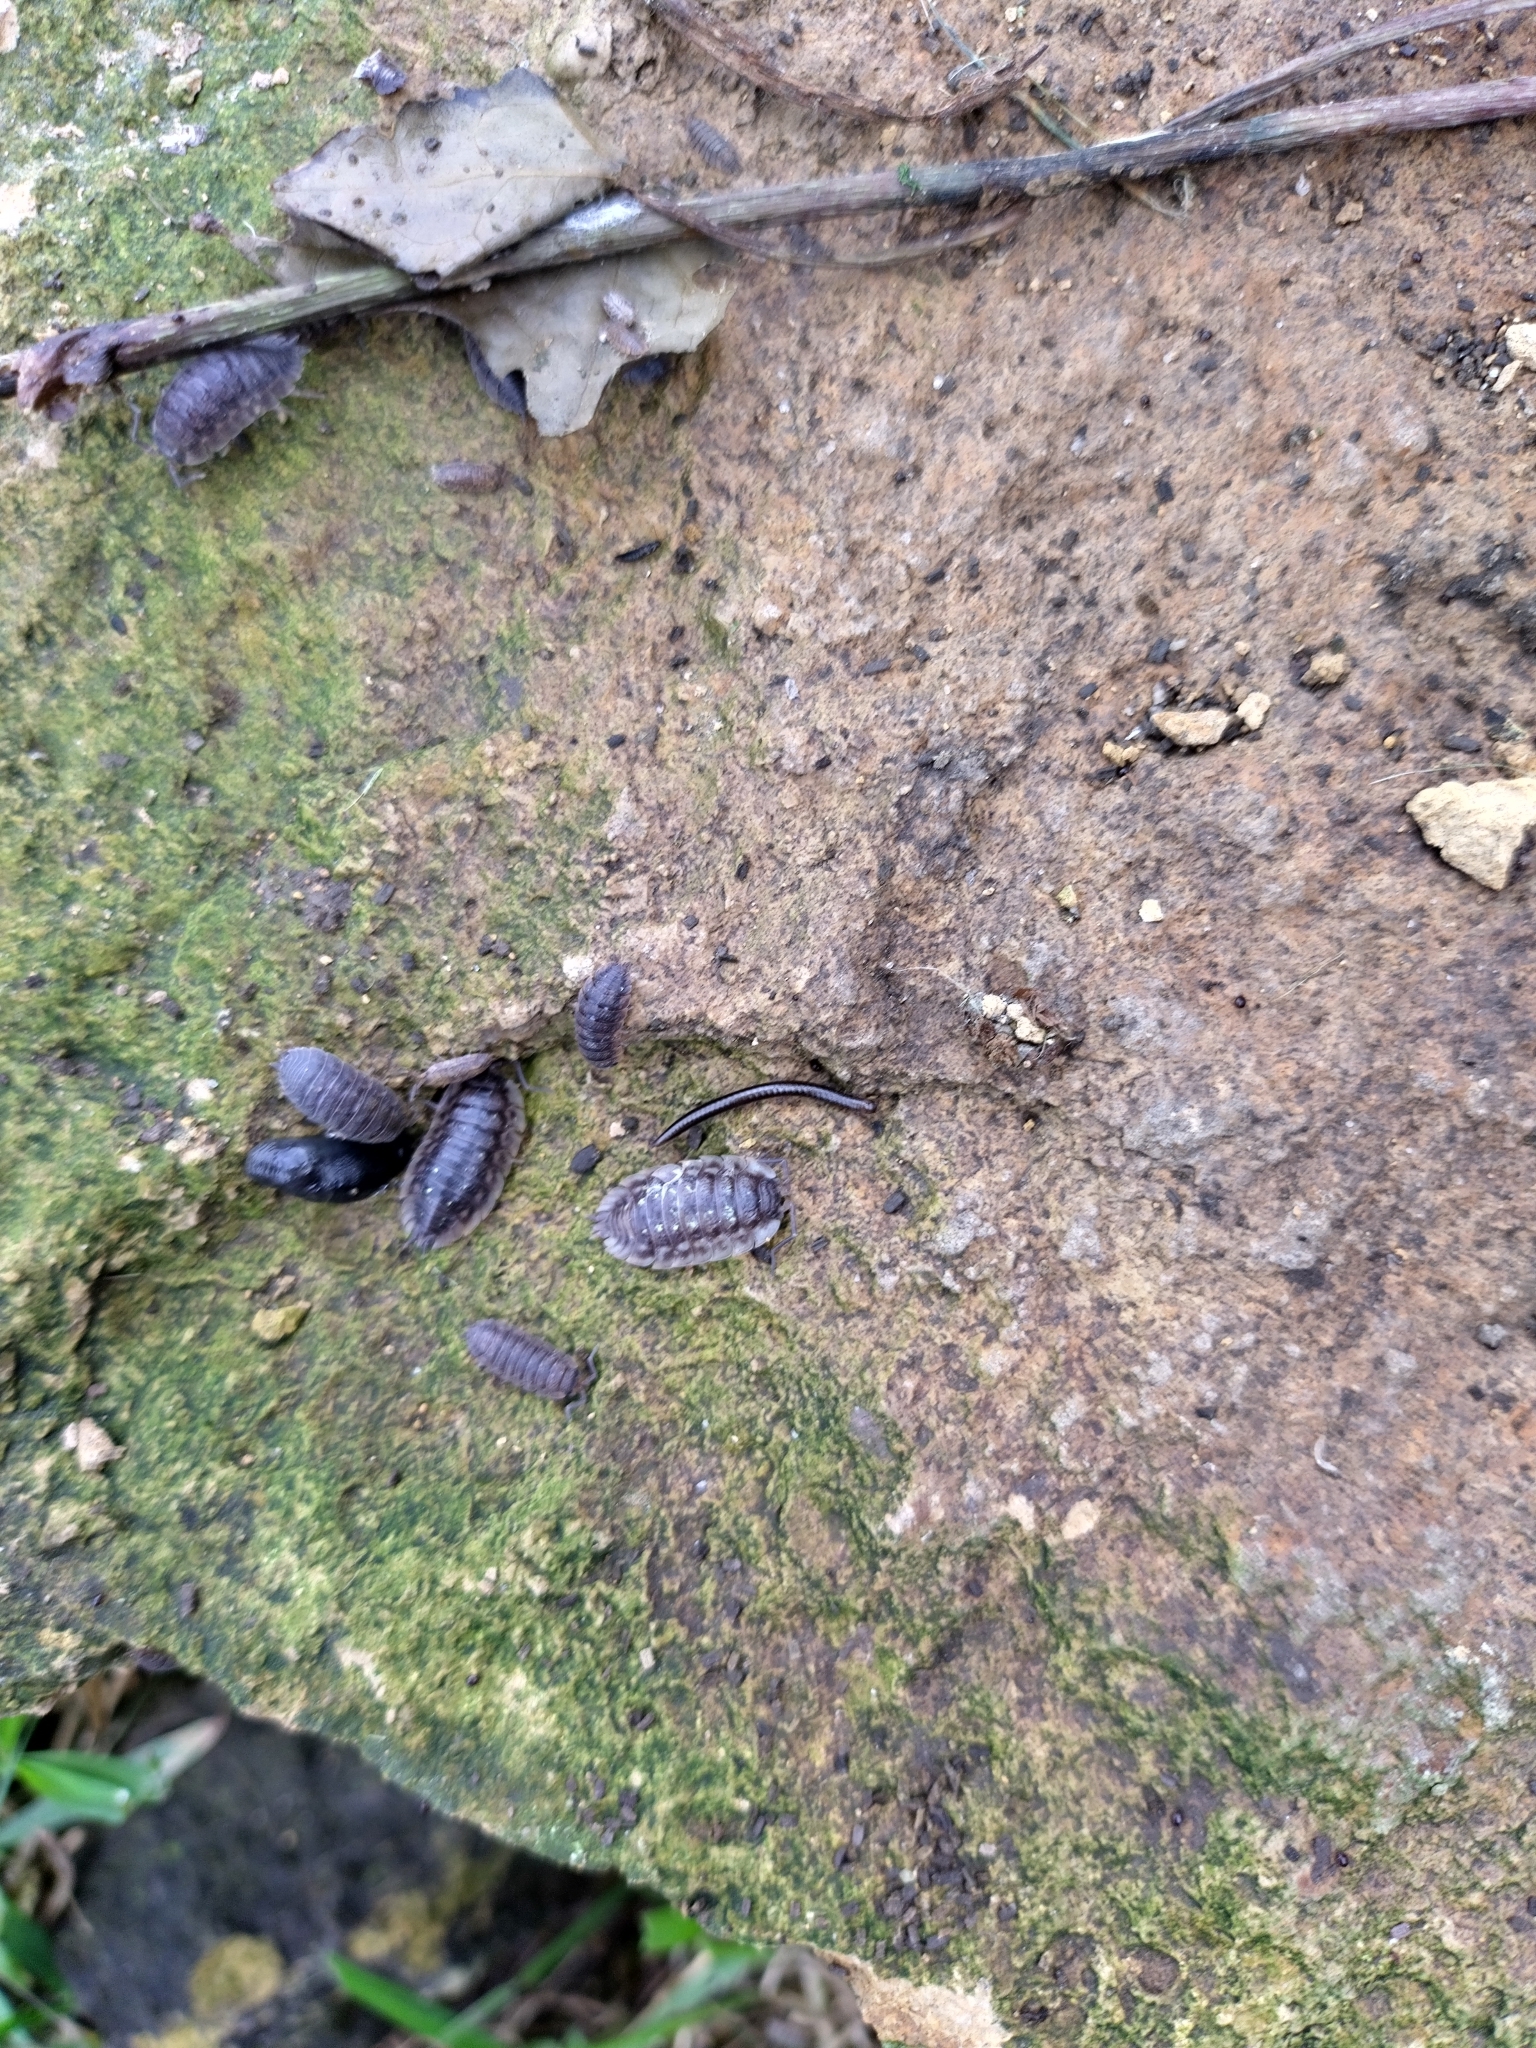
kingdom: Animalia
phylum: Arthropoda
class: Malacostraca
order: Isopoda
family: Porcellionidae
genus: Porcellio
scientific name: Porcellio scaber
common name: Common rough woodlouse
